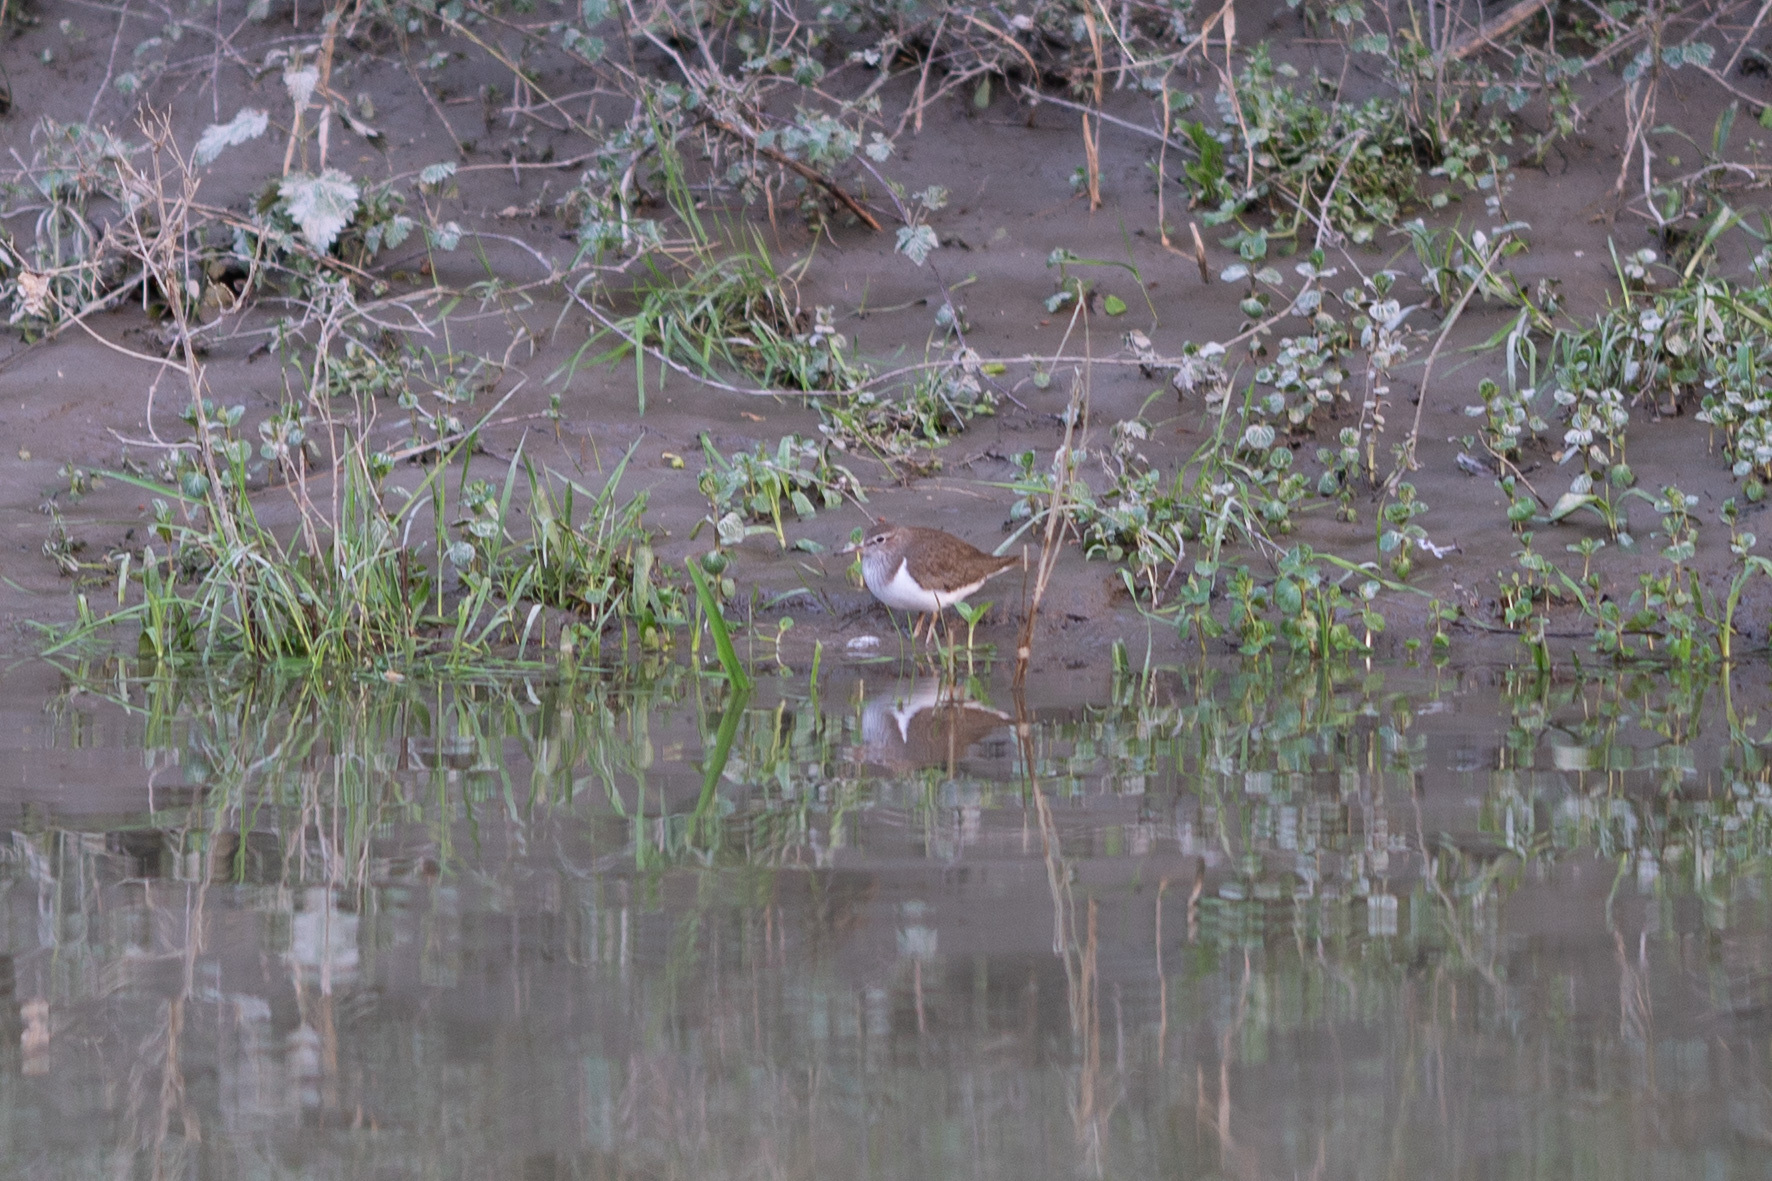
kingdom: Animalia
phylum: Chordata
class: Aves
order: Charadriiformes
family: Scolopacidae
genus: Actitis
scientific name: Actitis hypoleucos
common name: Common sandpiper
